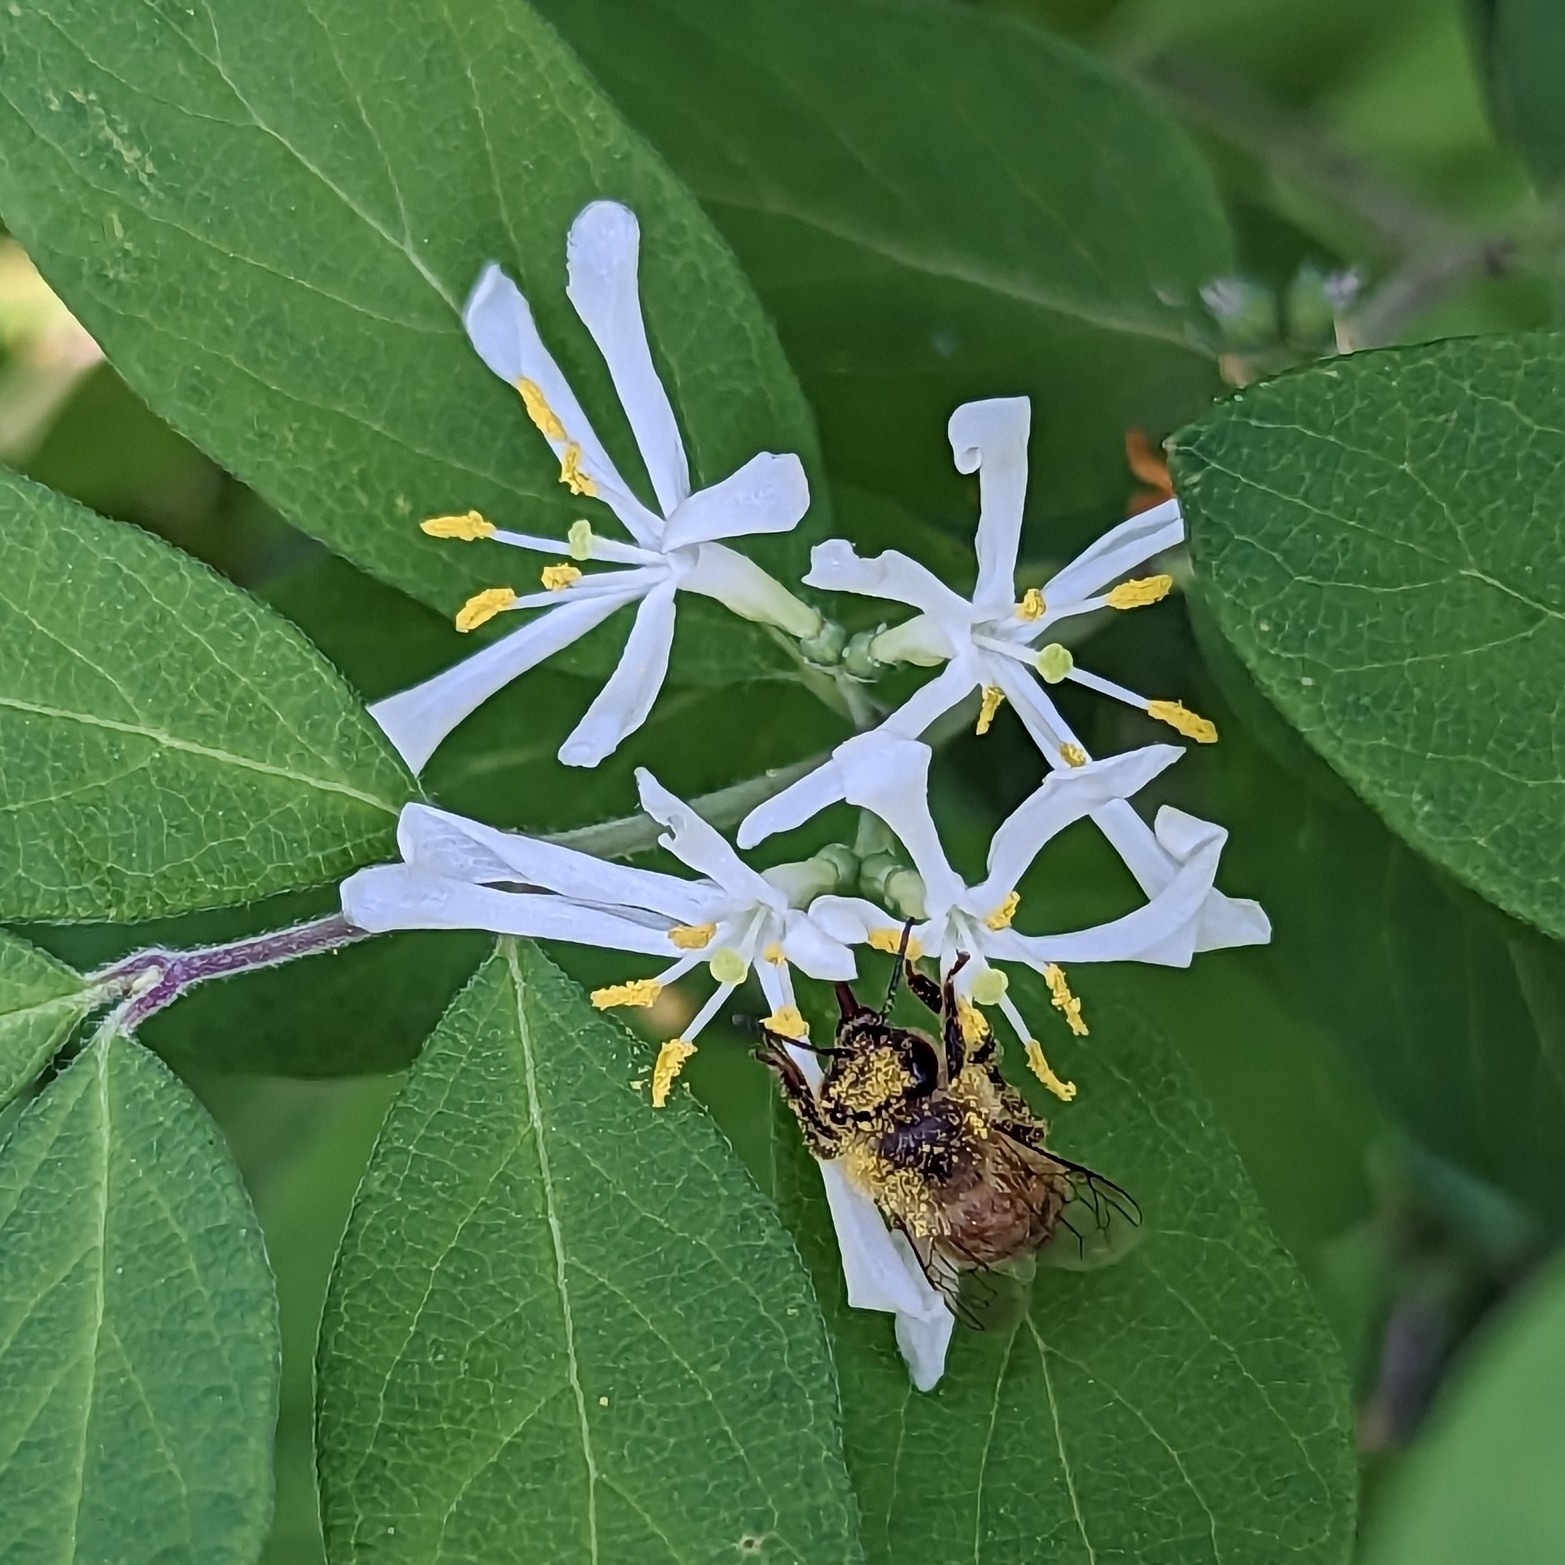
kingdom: Animalia
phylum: Arthropoda
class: Insecta
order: Hymenoptera
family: Apidae
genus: Apis
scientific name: Apis mellifera
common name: Honey bee
